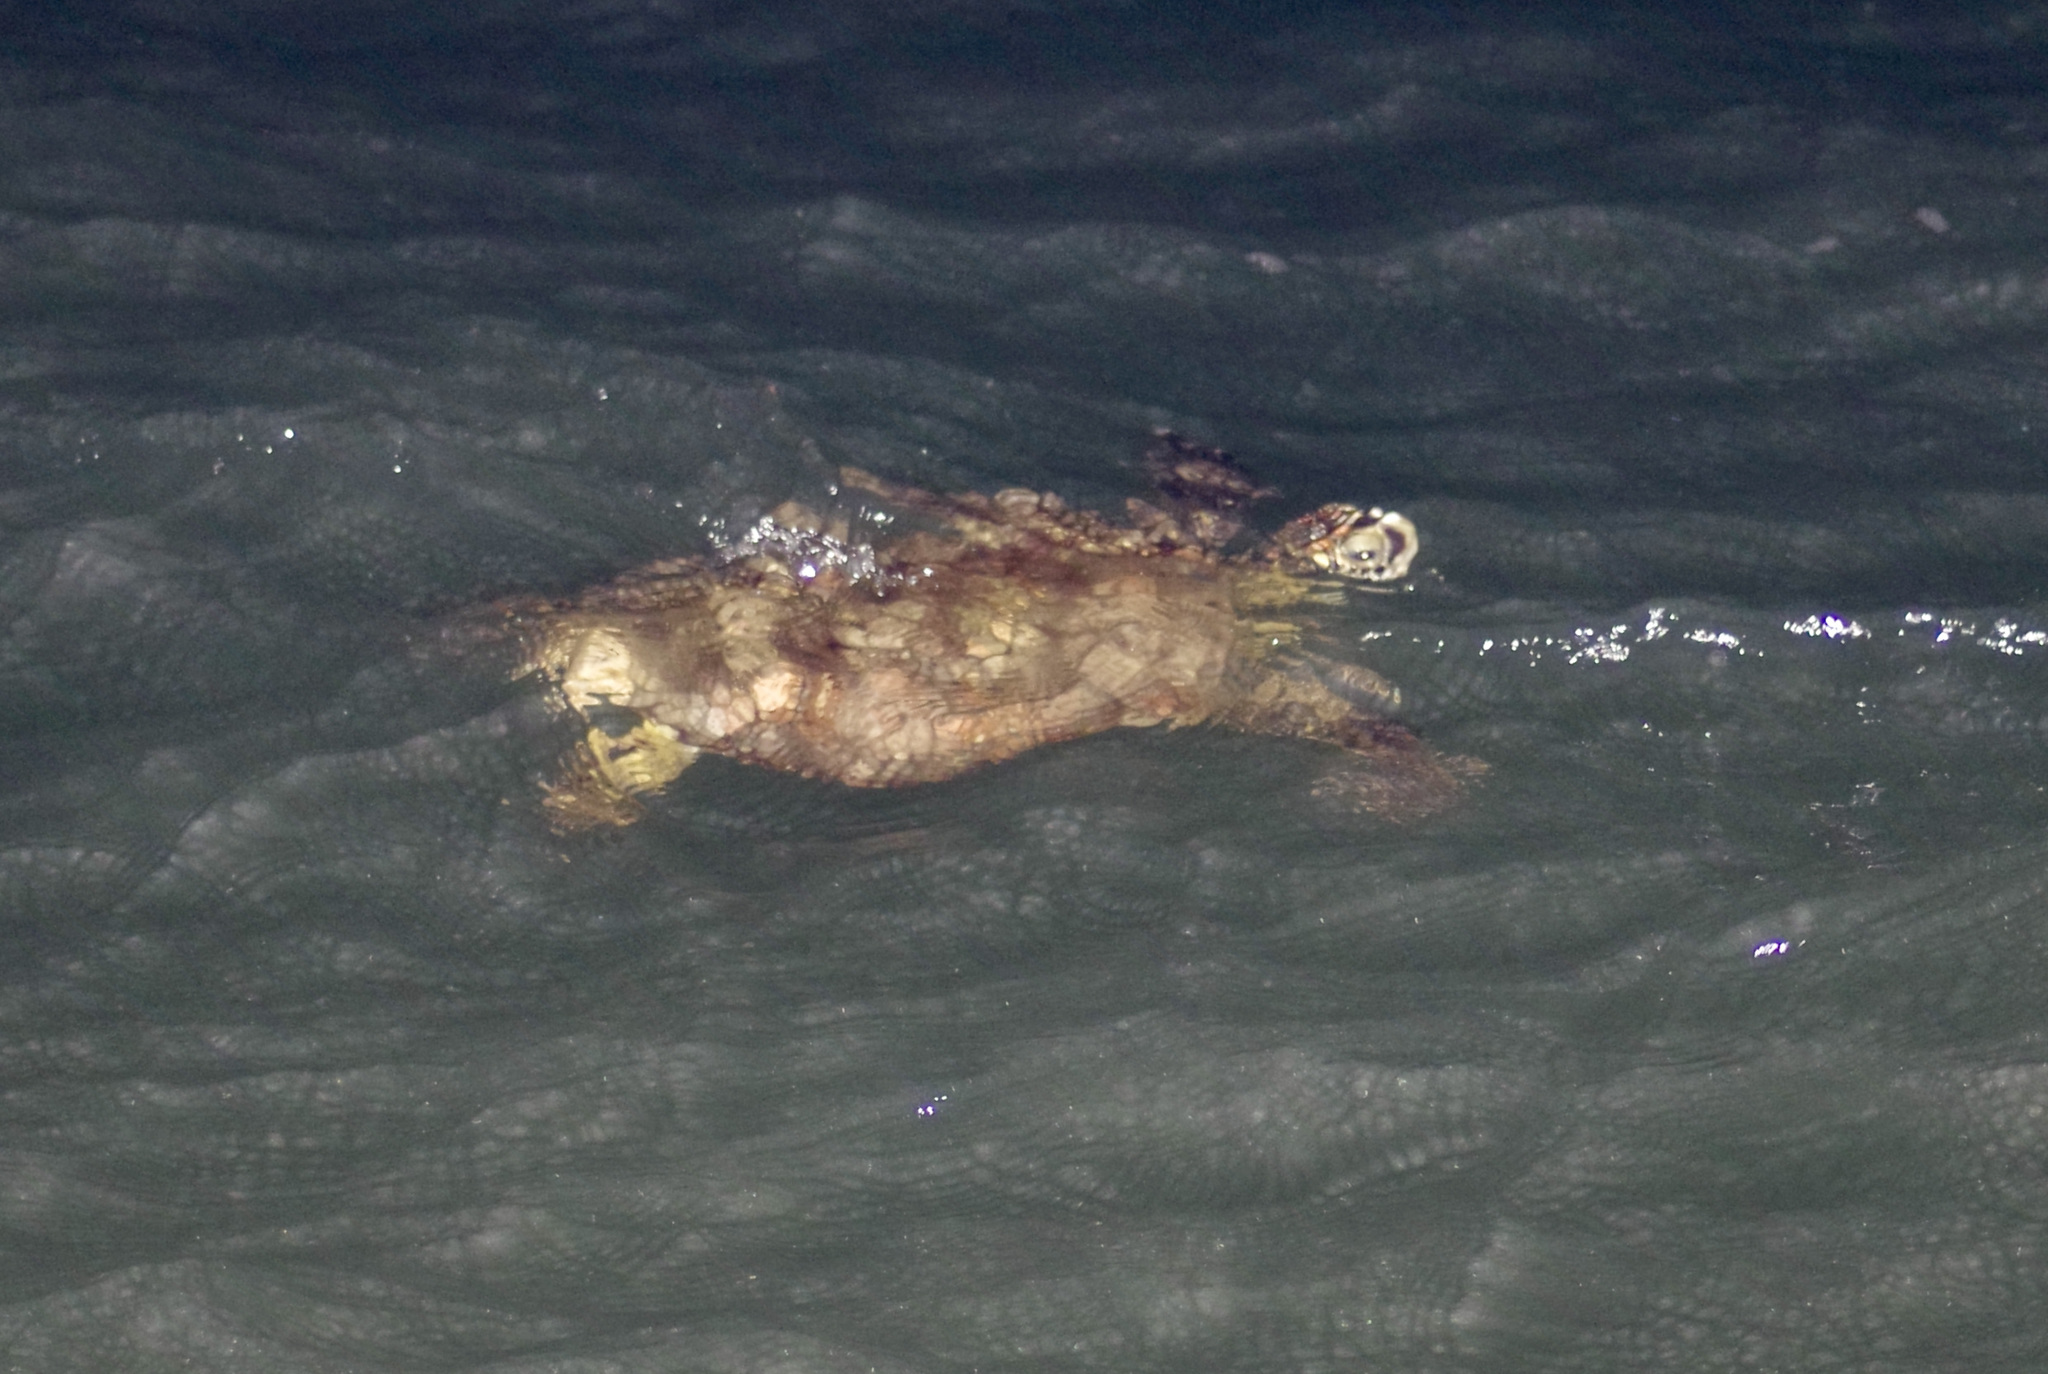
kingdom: Animalia
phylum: Chordata
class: Testudines
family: Cheloniidae
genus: Chelonia
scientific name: Chelonia mydas
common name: Green turtle
